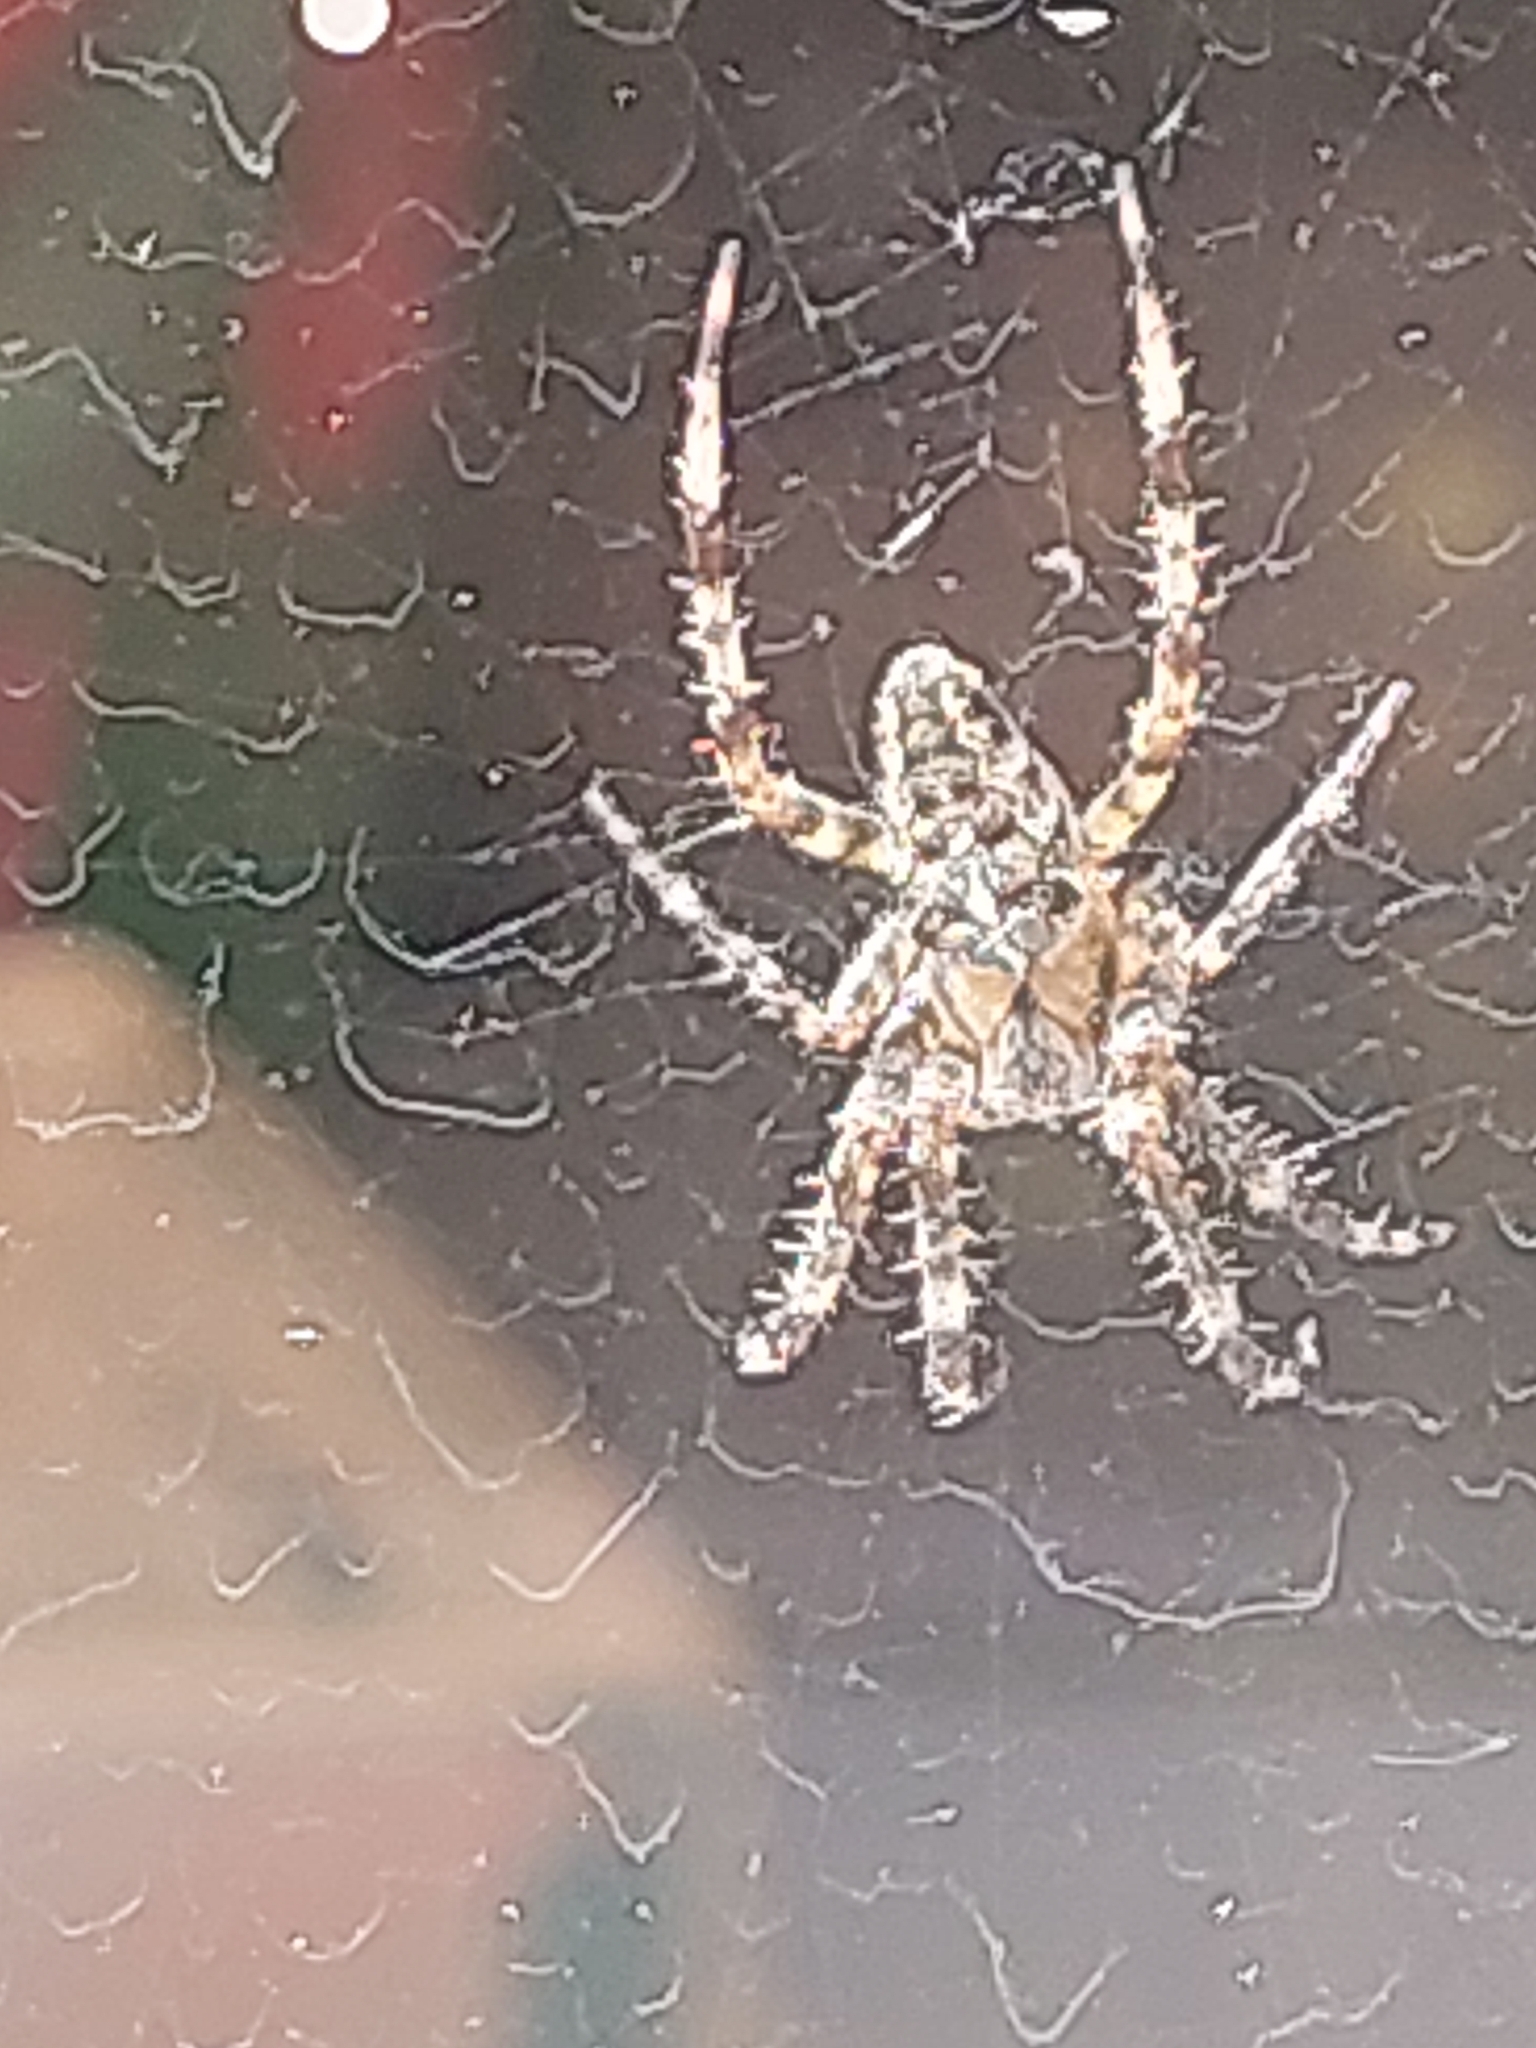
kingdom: Animalia
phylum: Arthropoda
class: Arachnida
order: Araneae
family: Araneidae
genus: Araneus
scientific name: Araneus diadematus
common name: Cross orbweaver
